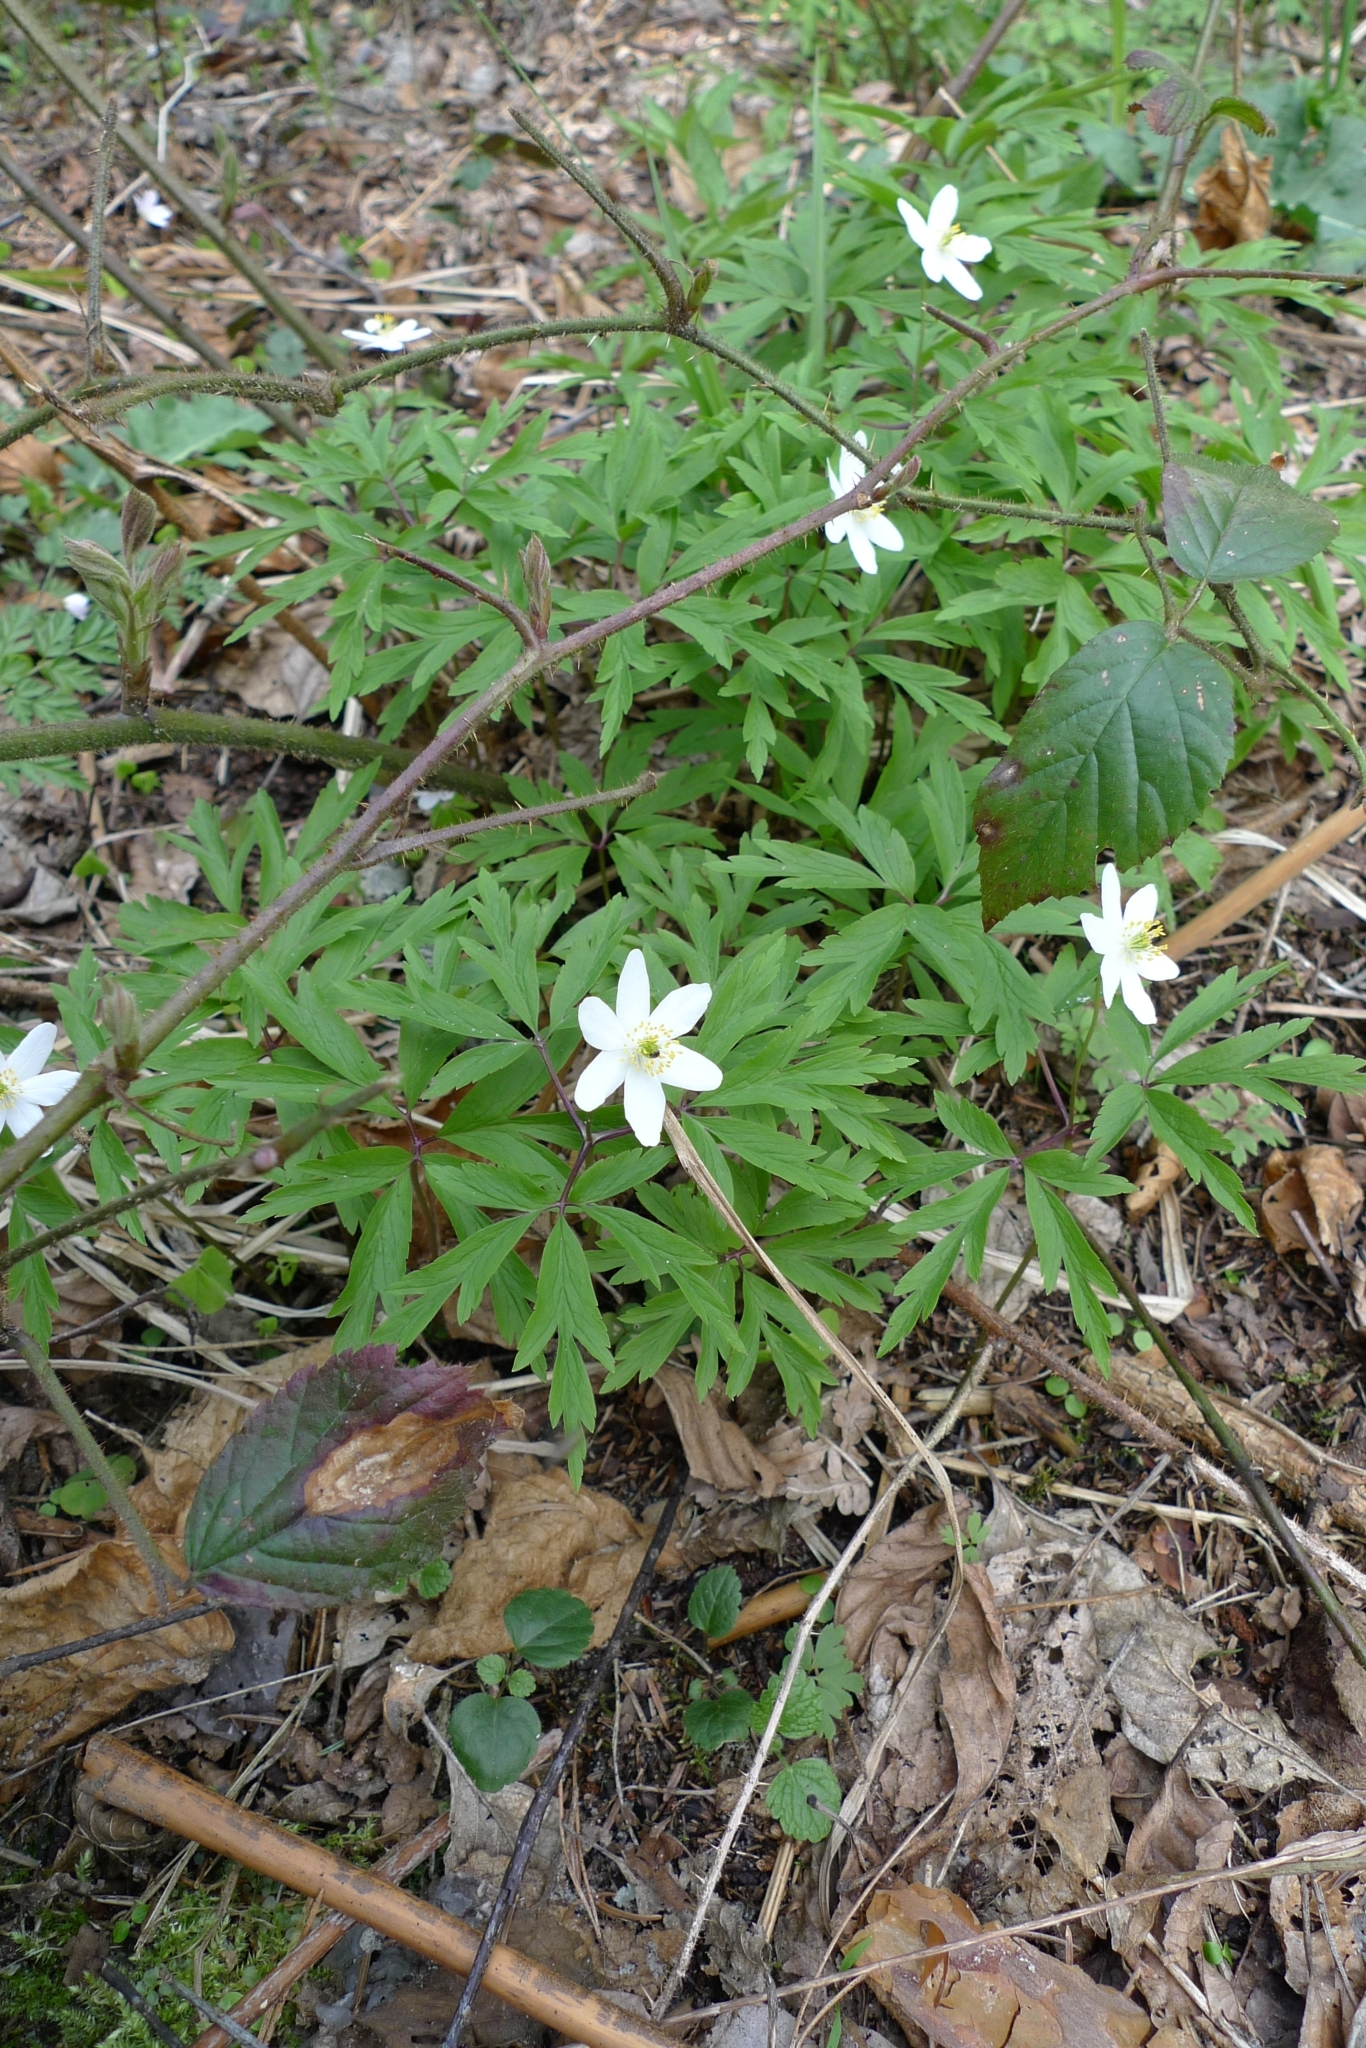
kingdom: Plantae
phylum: Tracheophyta
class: Magnoliopsida
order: Ranunculales
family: Ranunculaceae
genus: Anemone
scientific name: Anemone nemorosa
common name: Wood anemone
